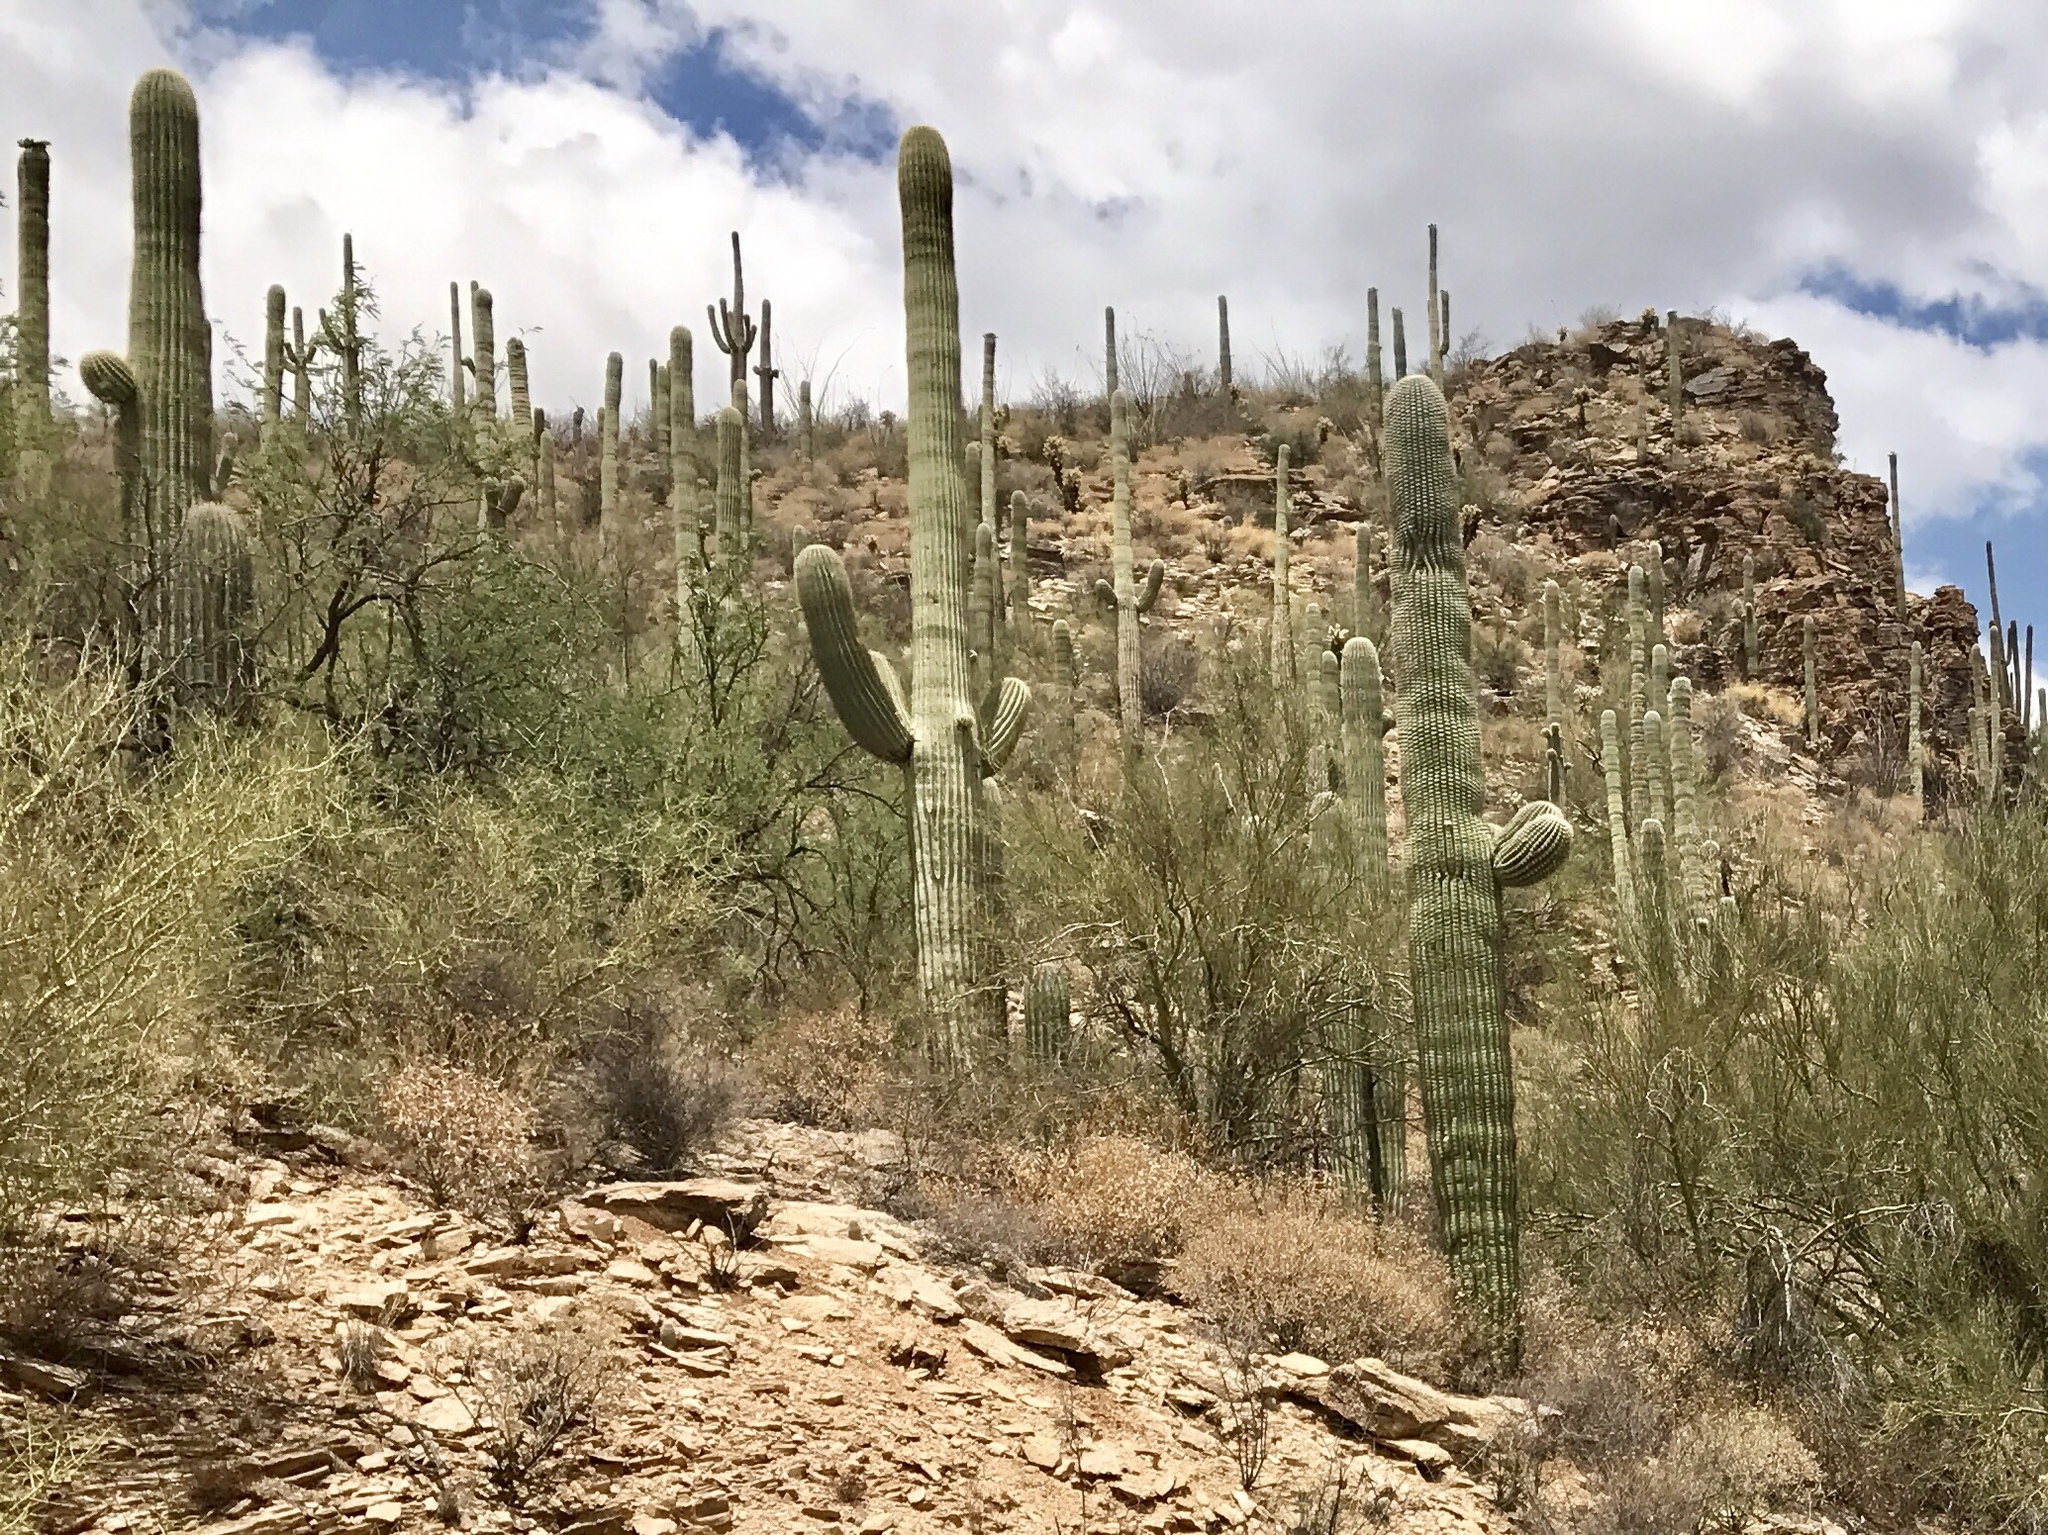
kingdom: Plantae
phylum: Tracheophyta
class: Magnoliopsida
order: Caryophyllales
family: Cactaceae
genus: Carnegiea
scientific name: Carnegiea gigantea
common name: Saguaro
